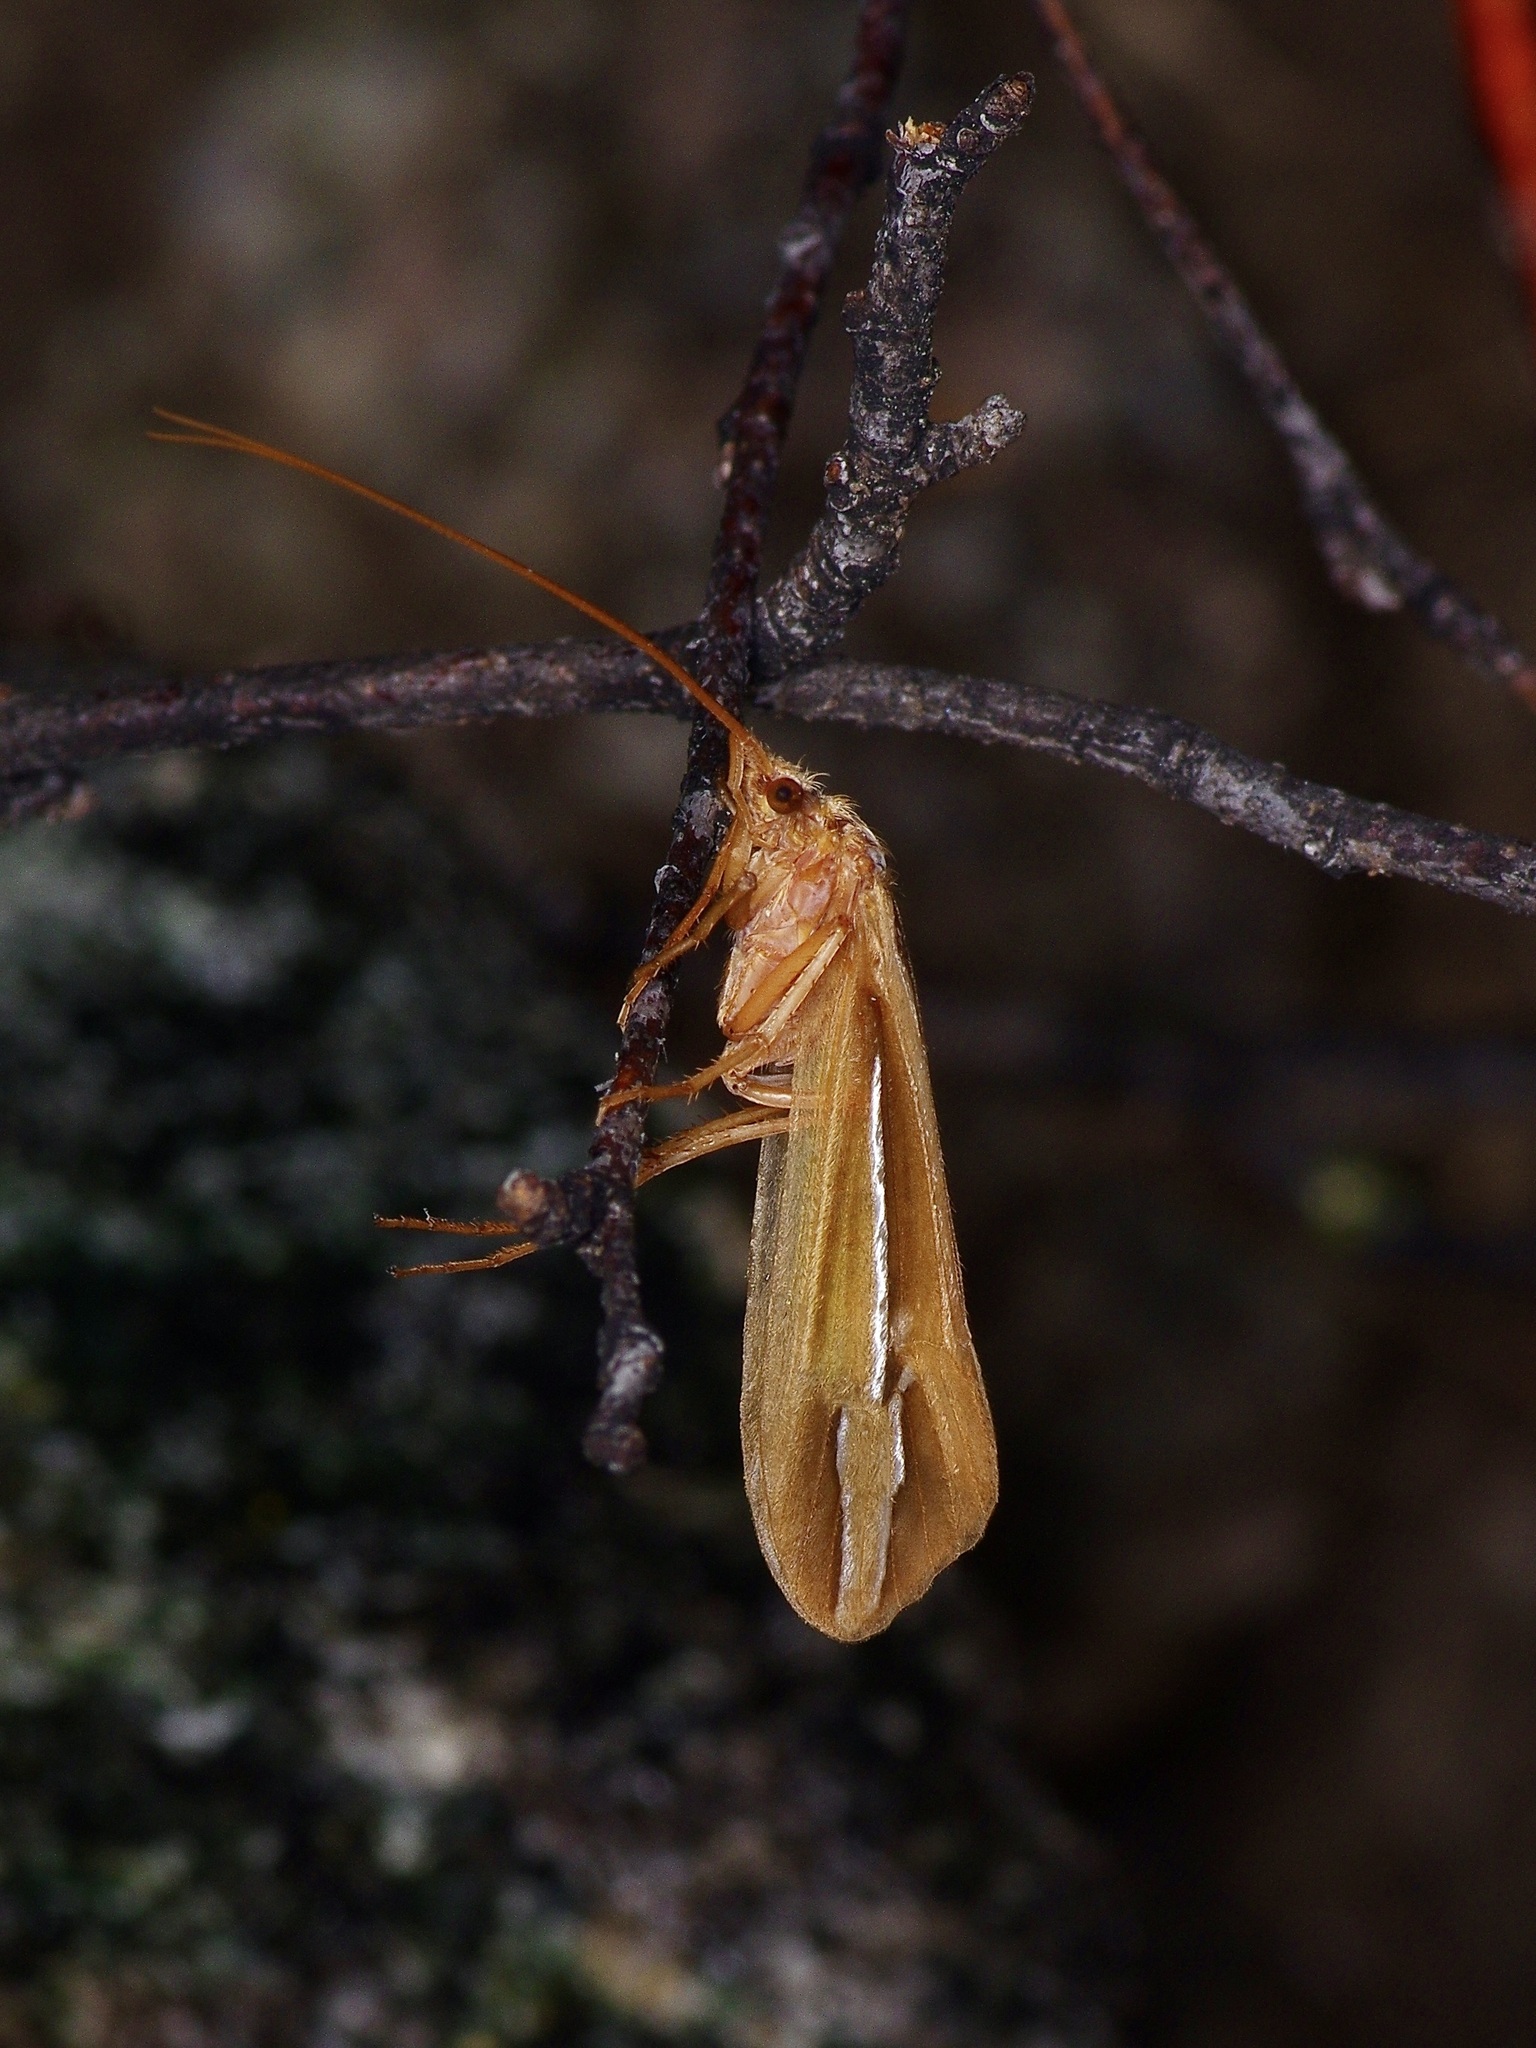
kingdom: Animalia
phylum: Arthropoda
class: Insecta
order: Trichoptera
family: Limnephilidae
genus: Hesperophylax
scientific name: Hesperophylax designatus
